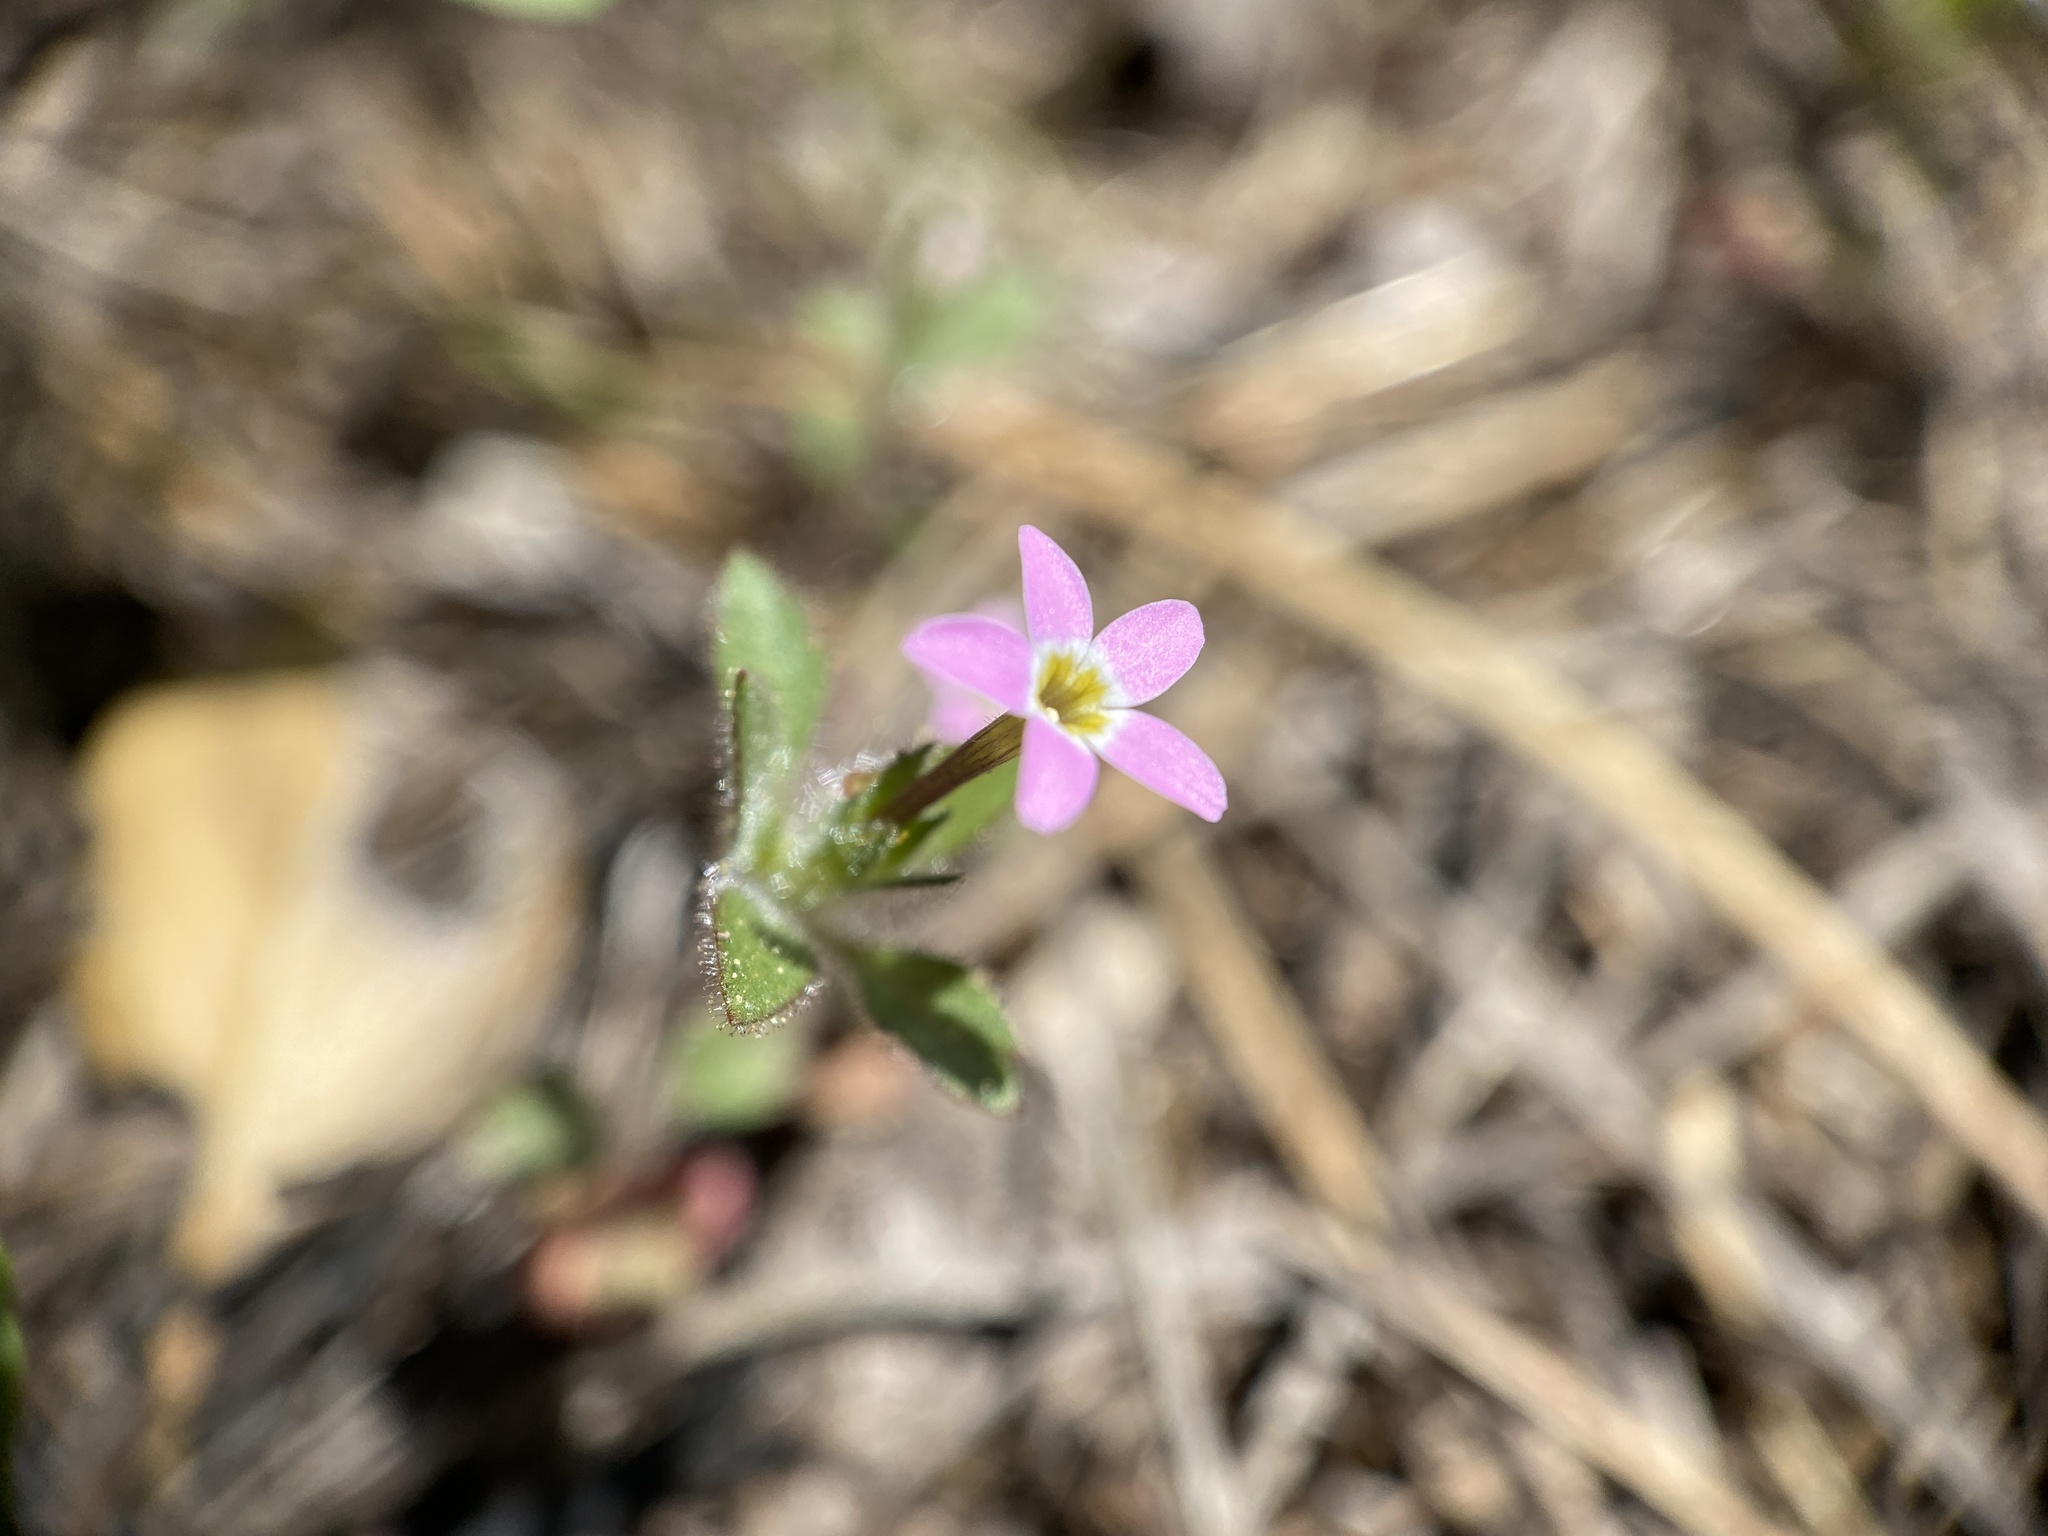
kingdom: Plantae
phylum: Tracheophyta
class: Magnoliopsida
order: Ericales
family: Polemoniaceae
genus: Collomia
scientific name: Collomia heterophylla
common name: Variable-leaved collomia
